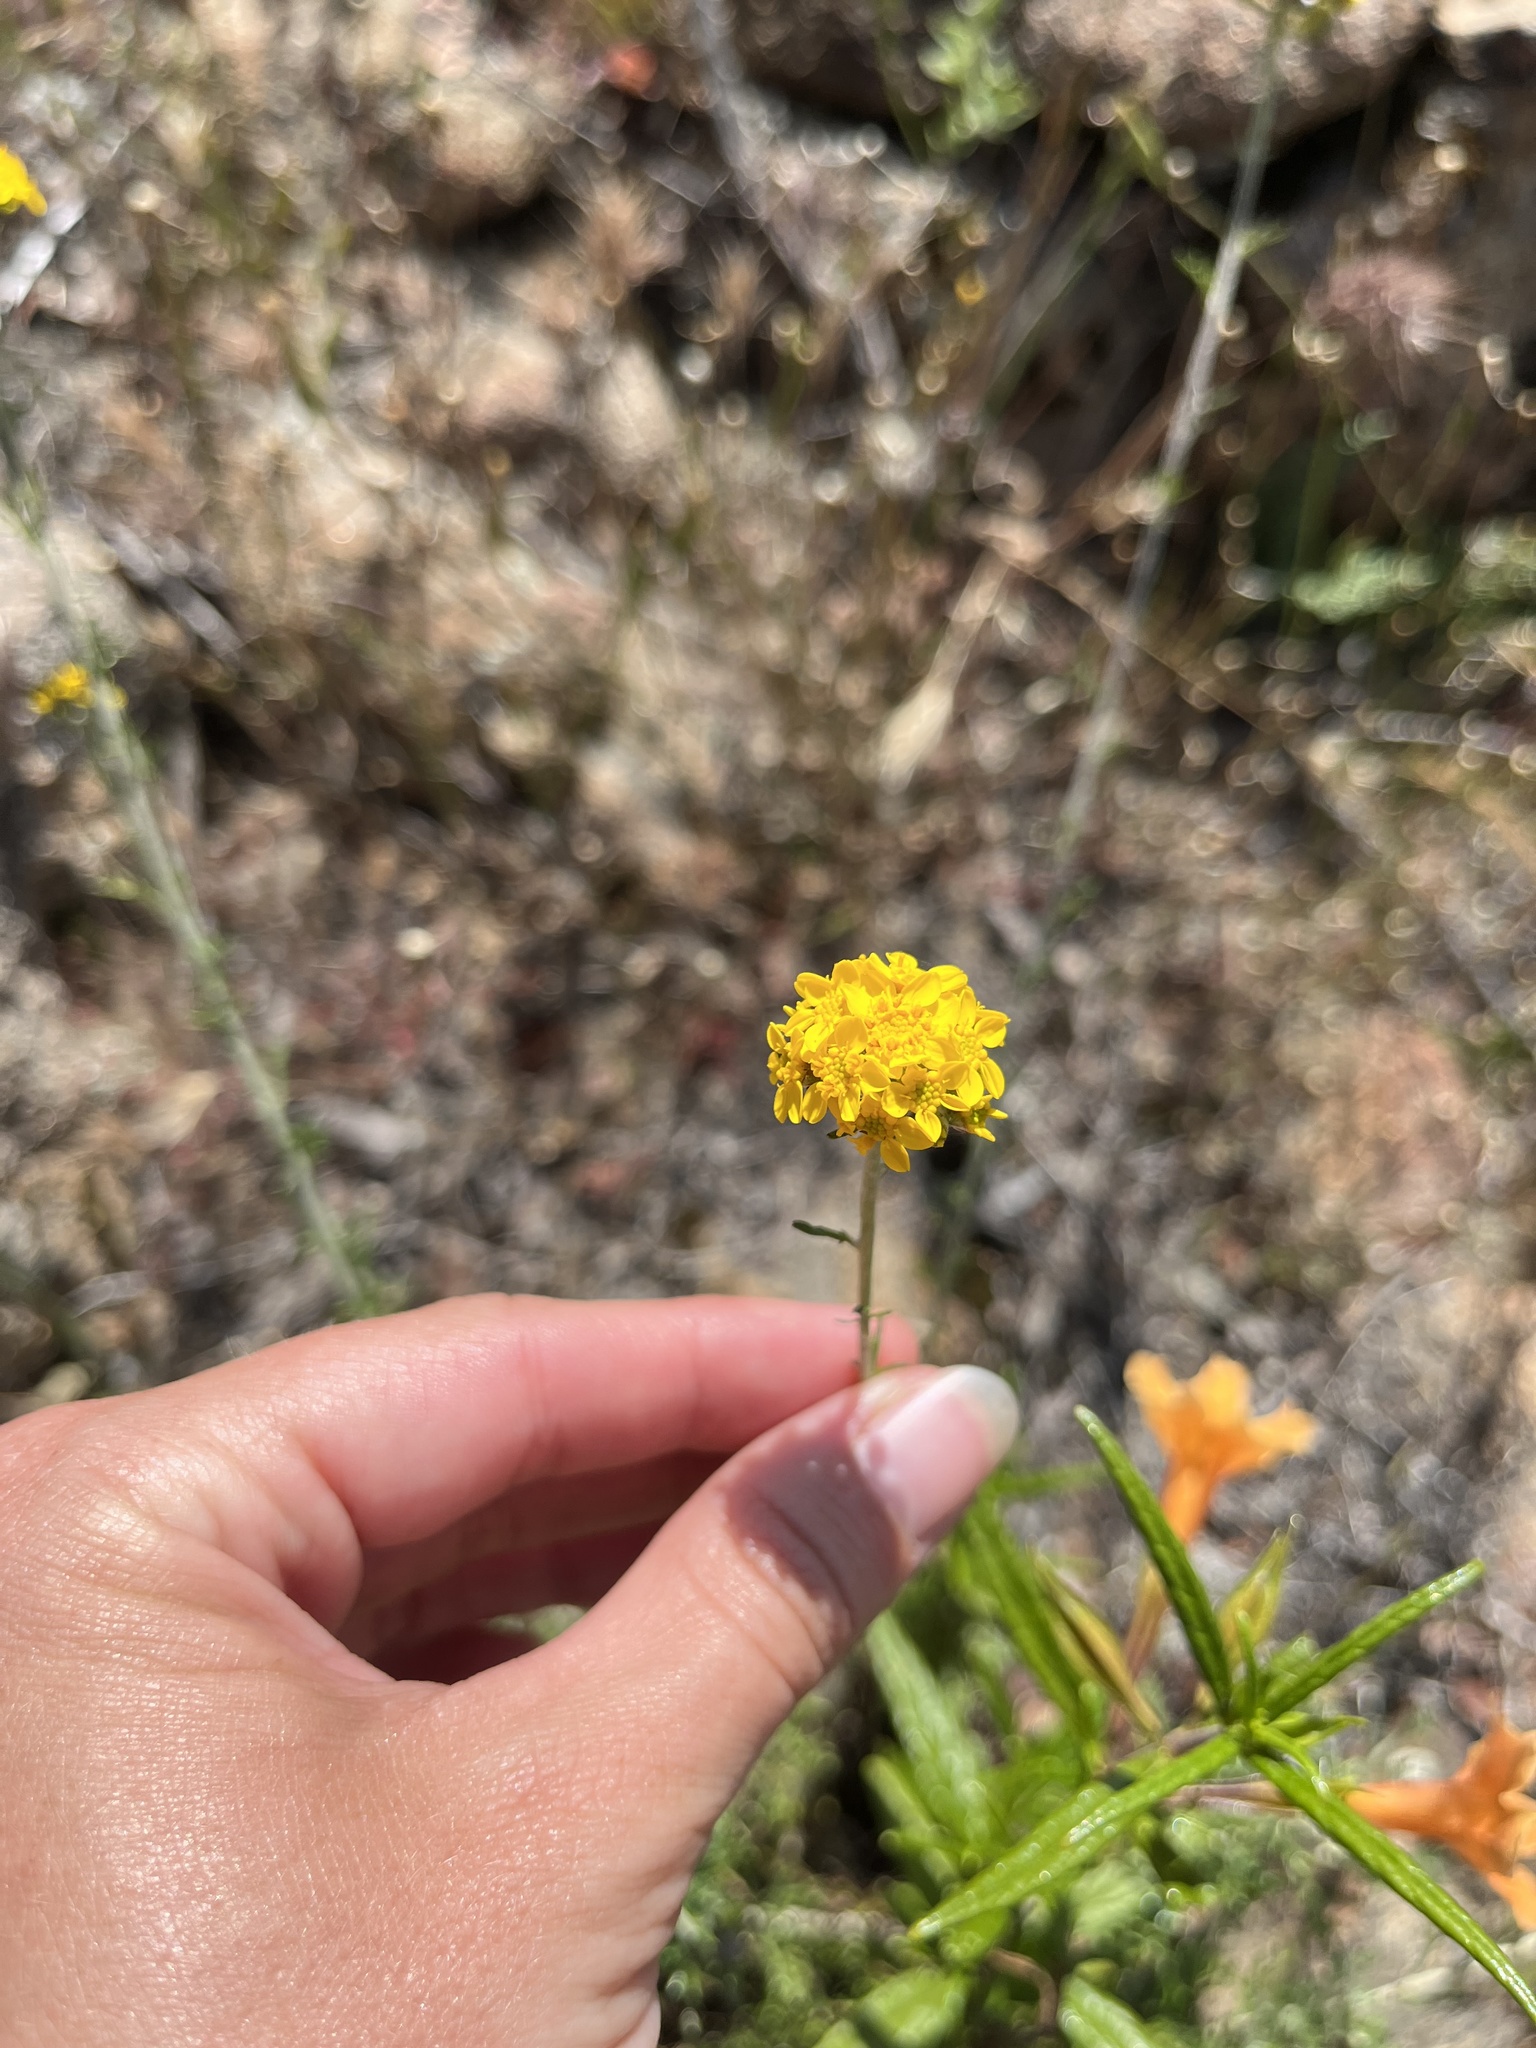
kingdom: Plantae
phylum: Tracheophyta
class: Magnoliopsida
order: Asterales
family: Asteraceae
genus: Eriophyllum
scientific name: Eriophyllum confertiflorum
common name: Golden-yarrow
